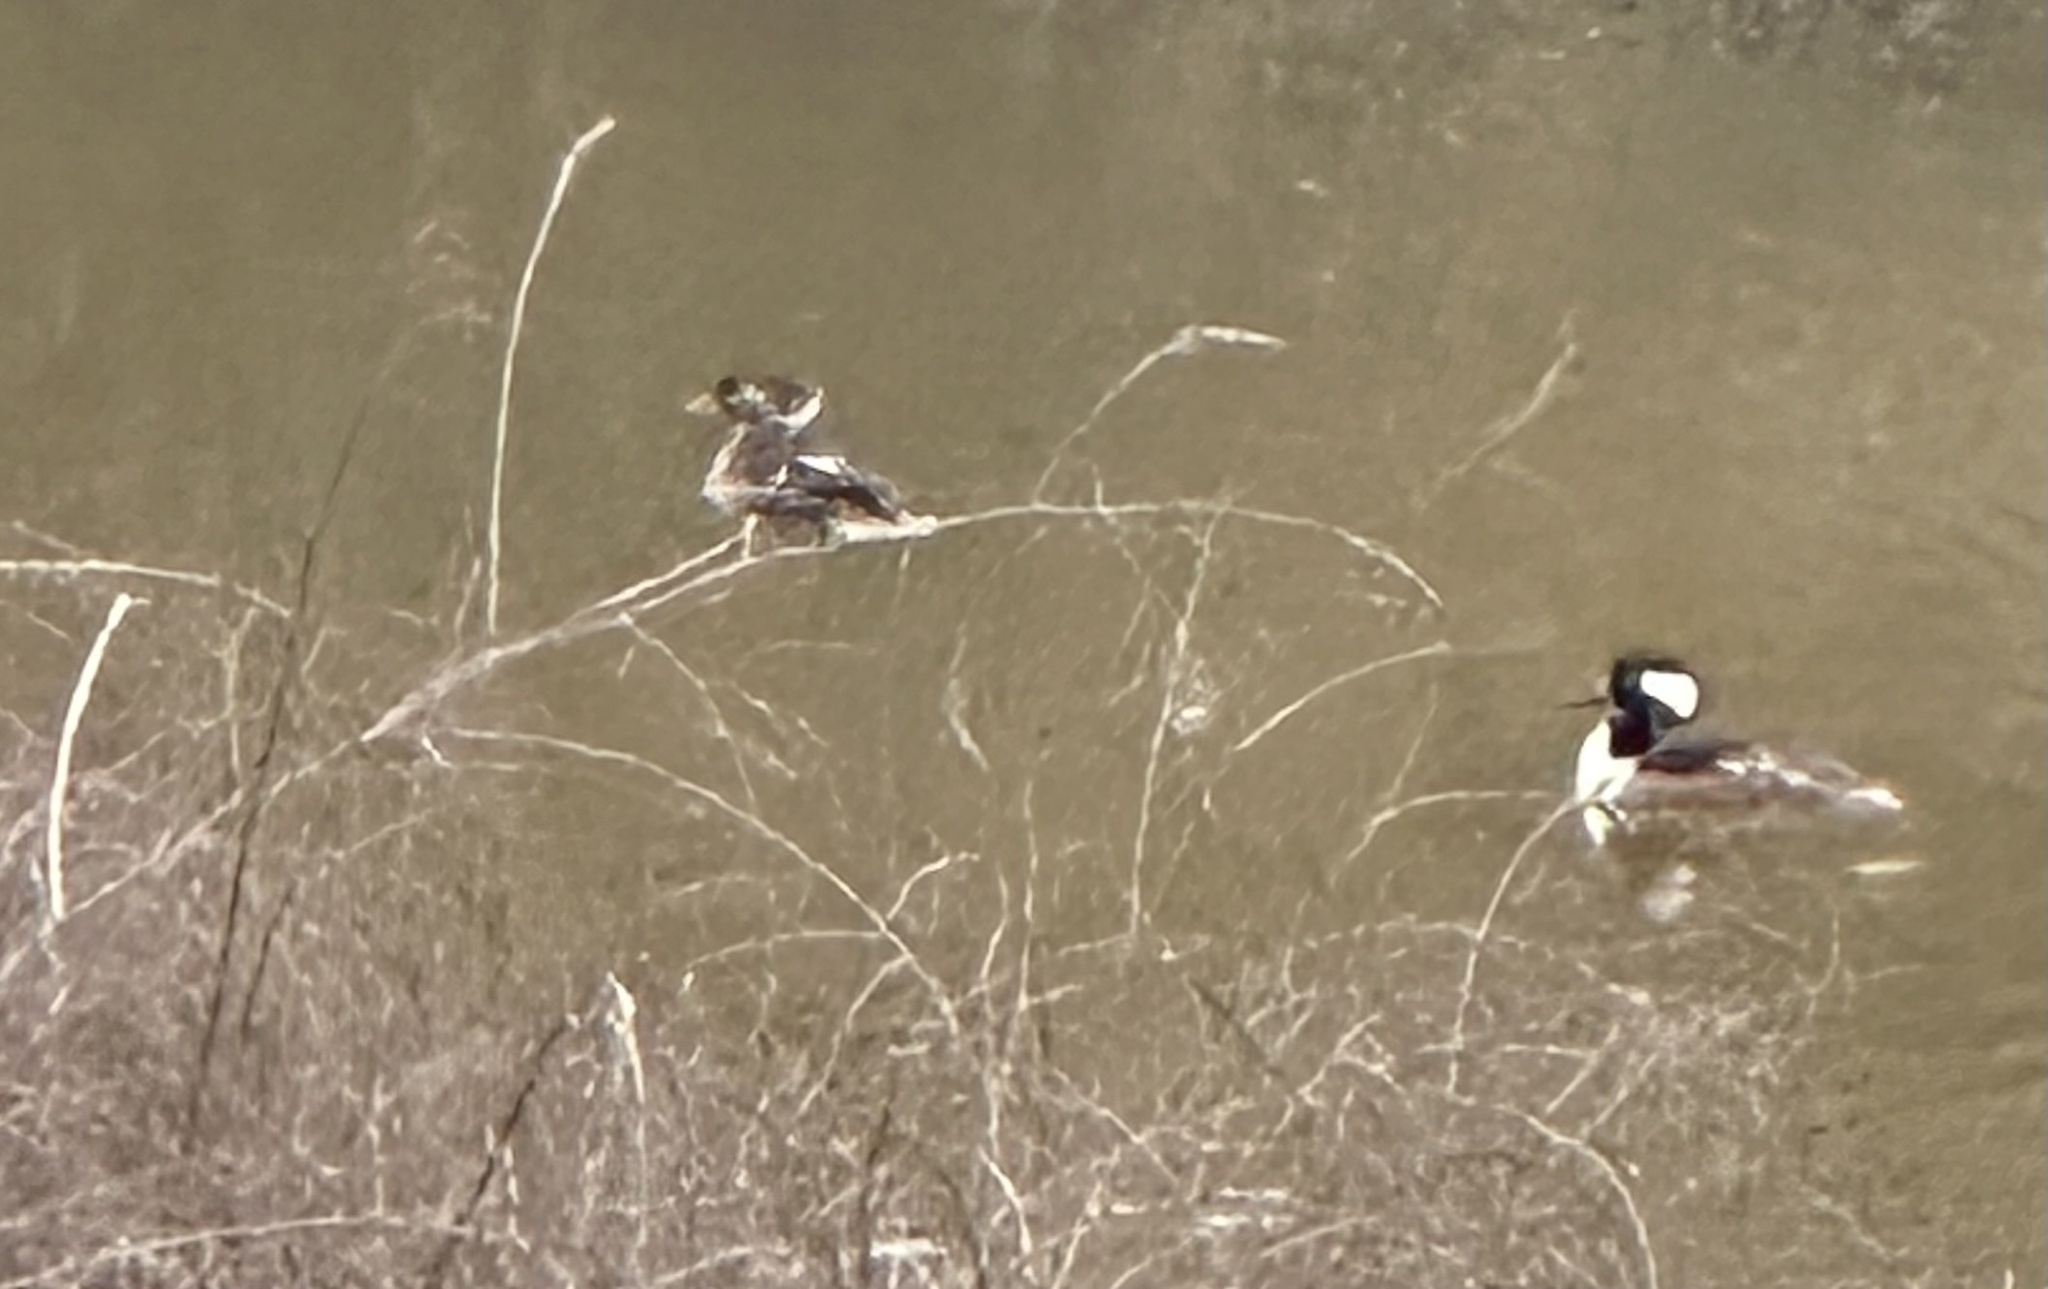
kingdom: Animalia
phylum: Chordata
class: Aves
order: Anseriformes
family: Anatidae
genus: Lophodytes
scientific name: Lophodytes cucullatus
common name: Hooded merganser
